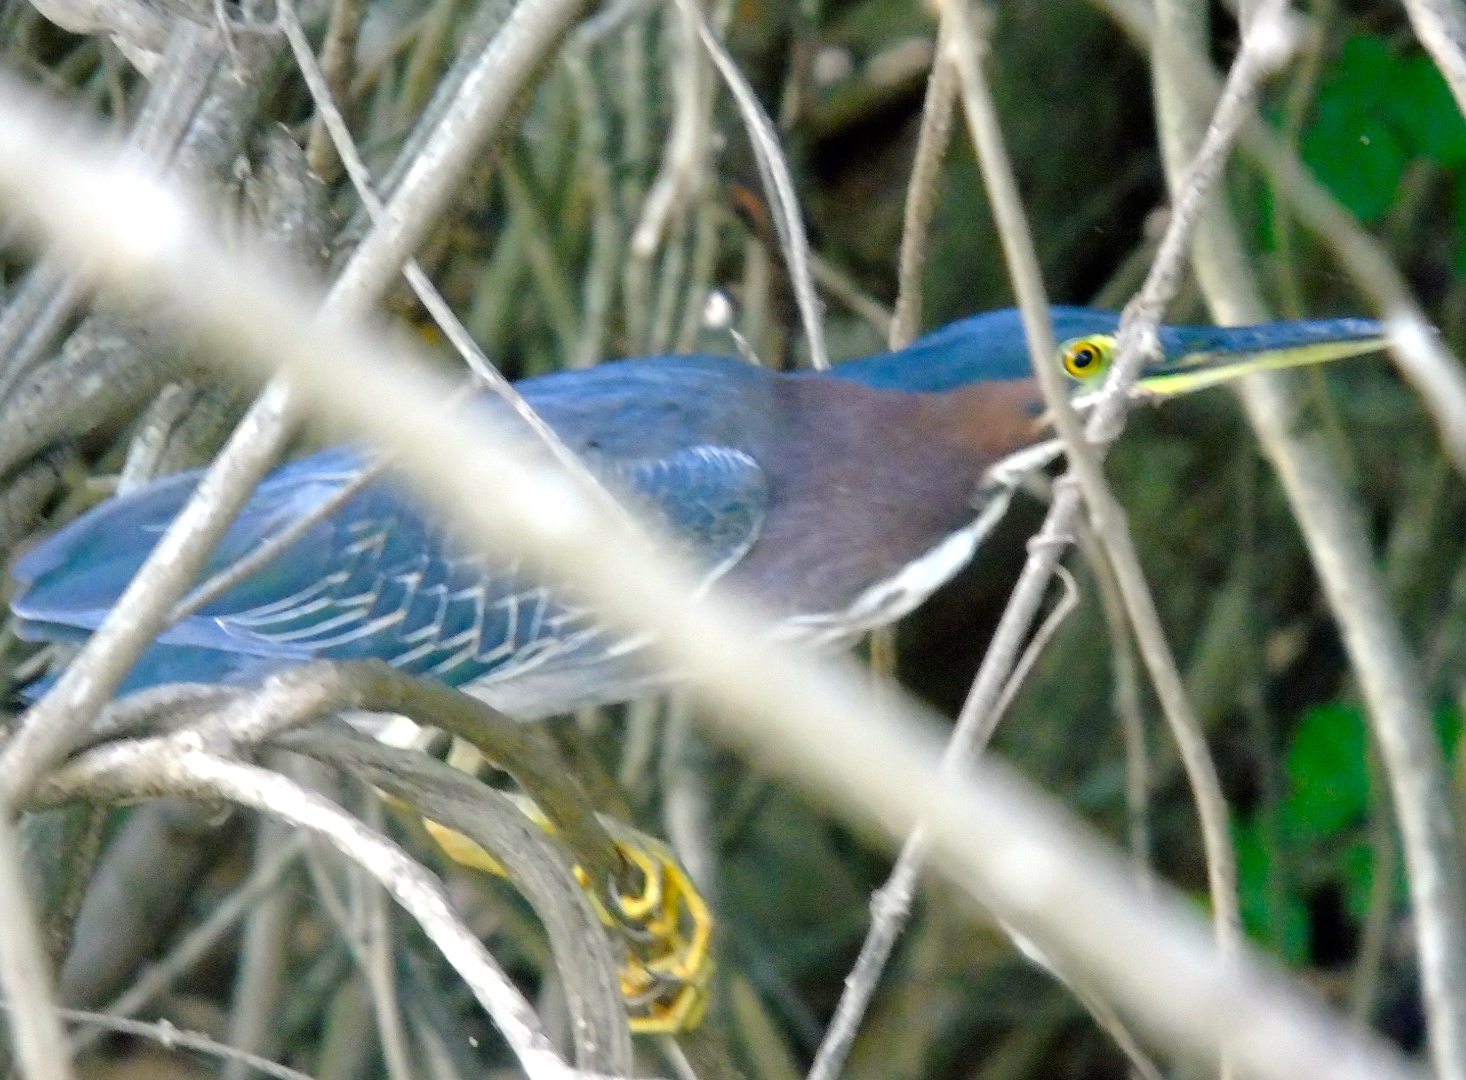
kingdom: Animalia
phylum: Chordata
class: Aves
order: Pelecaniformes
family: Ardeidae
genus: Butorides
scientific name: Butorides virescens
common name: Green heron
